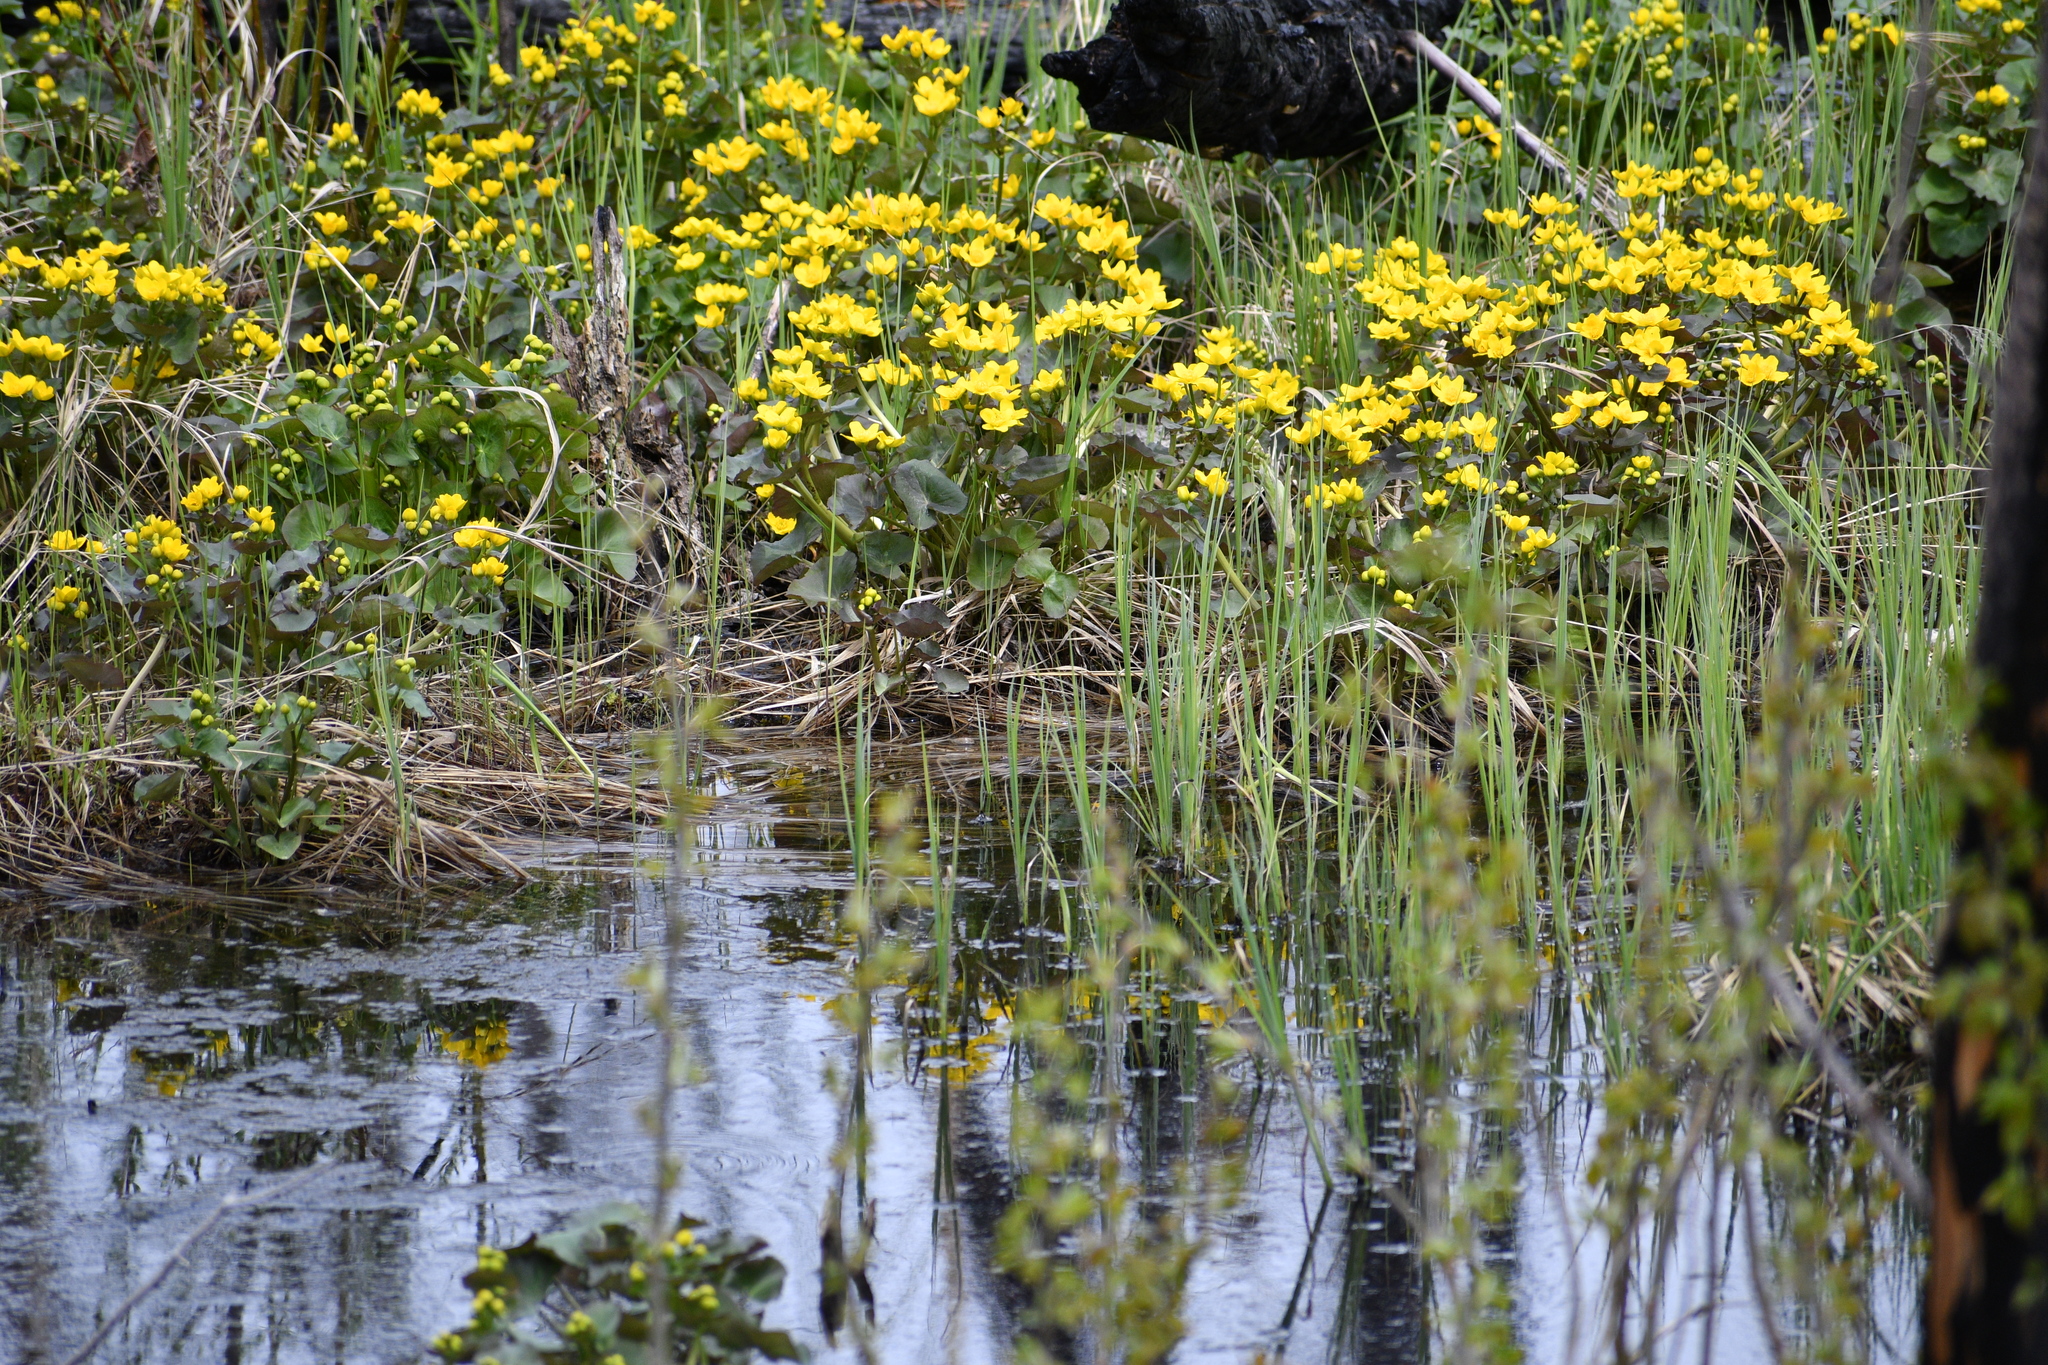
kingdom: Plantae
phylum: Tracheophyta
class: Magnoliopsida
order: Ranunculales
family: Ranunculaceae
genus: Caltha
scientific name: Caltha palustris
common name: Marsh marigold
